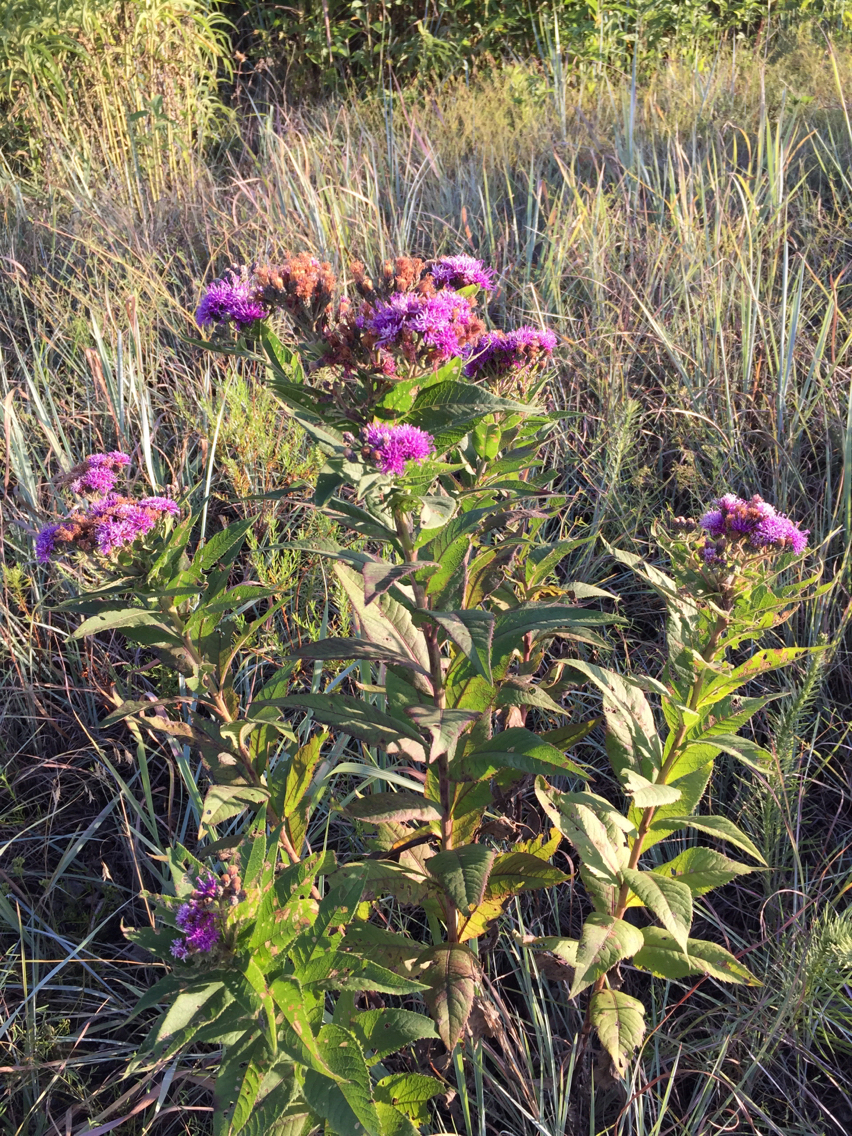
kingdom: Plantae
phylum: Tracheophyta
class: Magnoliopsida
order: Asterales
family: Asteraceae
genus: Vernonia
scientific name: Vernonia baldwinii
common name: Western ironweed
